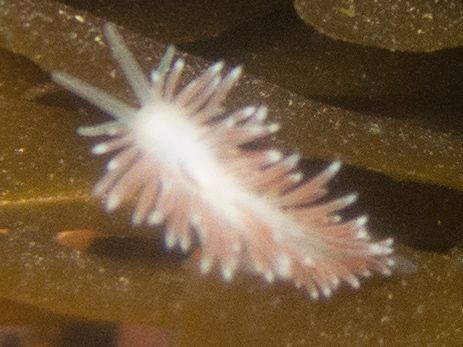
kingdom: Animalia
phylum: Mollusca
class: Gastropoda
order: Nudibranchia
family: Cuthonidae
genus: Cuthona
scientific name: Cuthona divae
